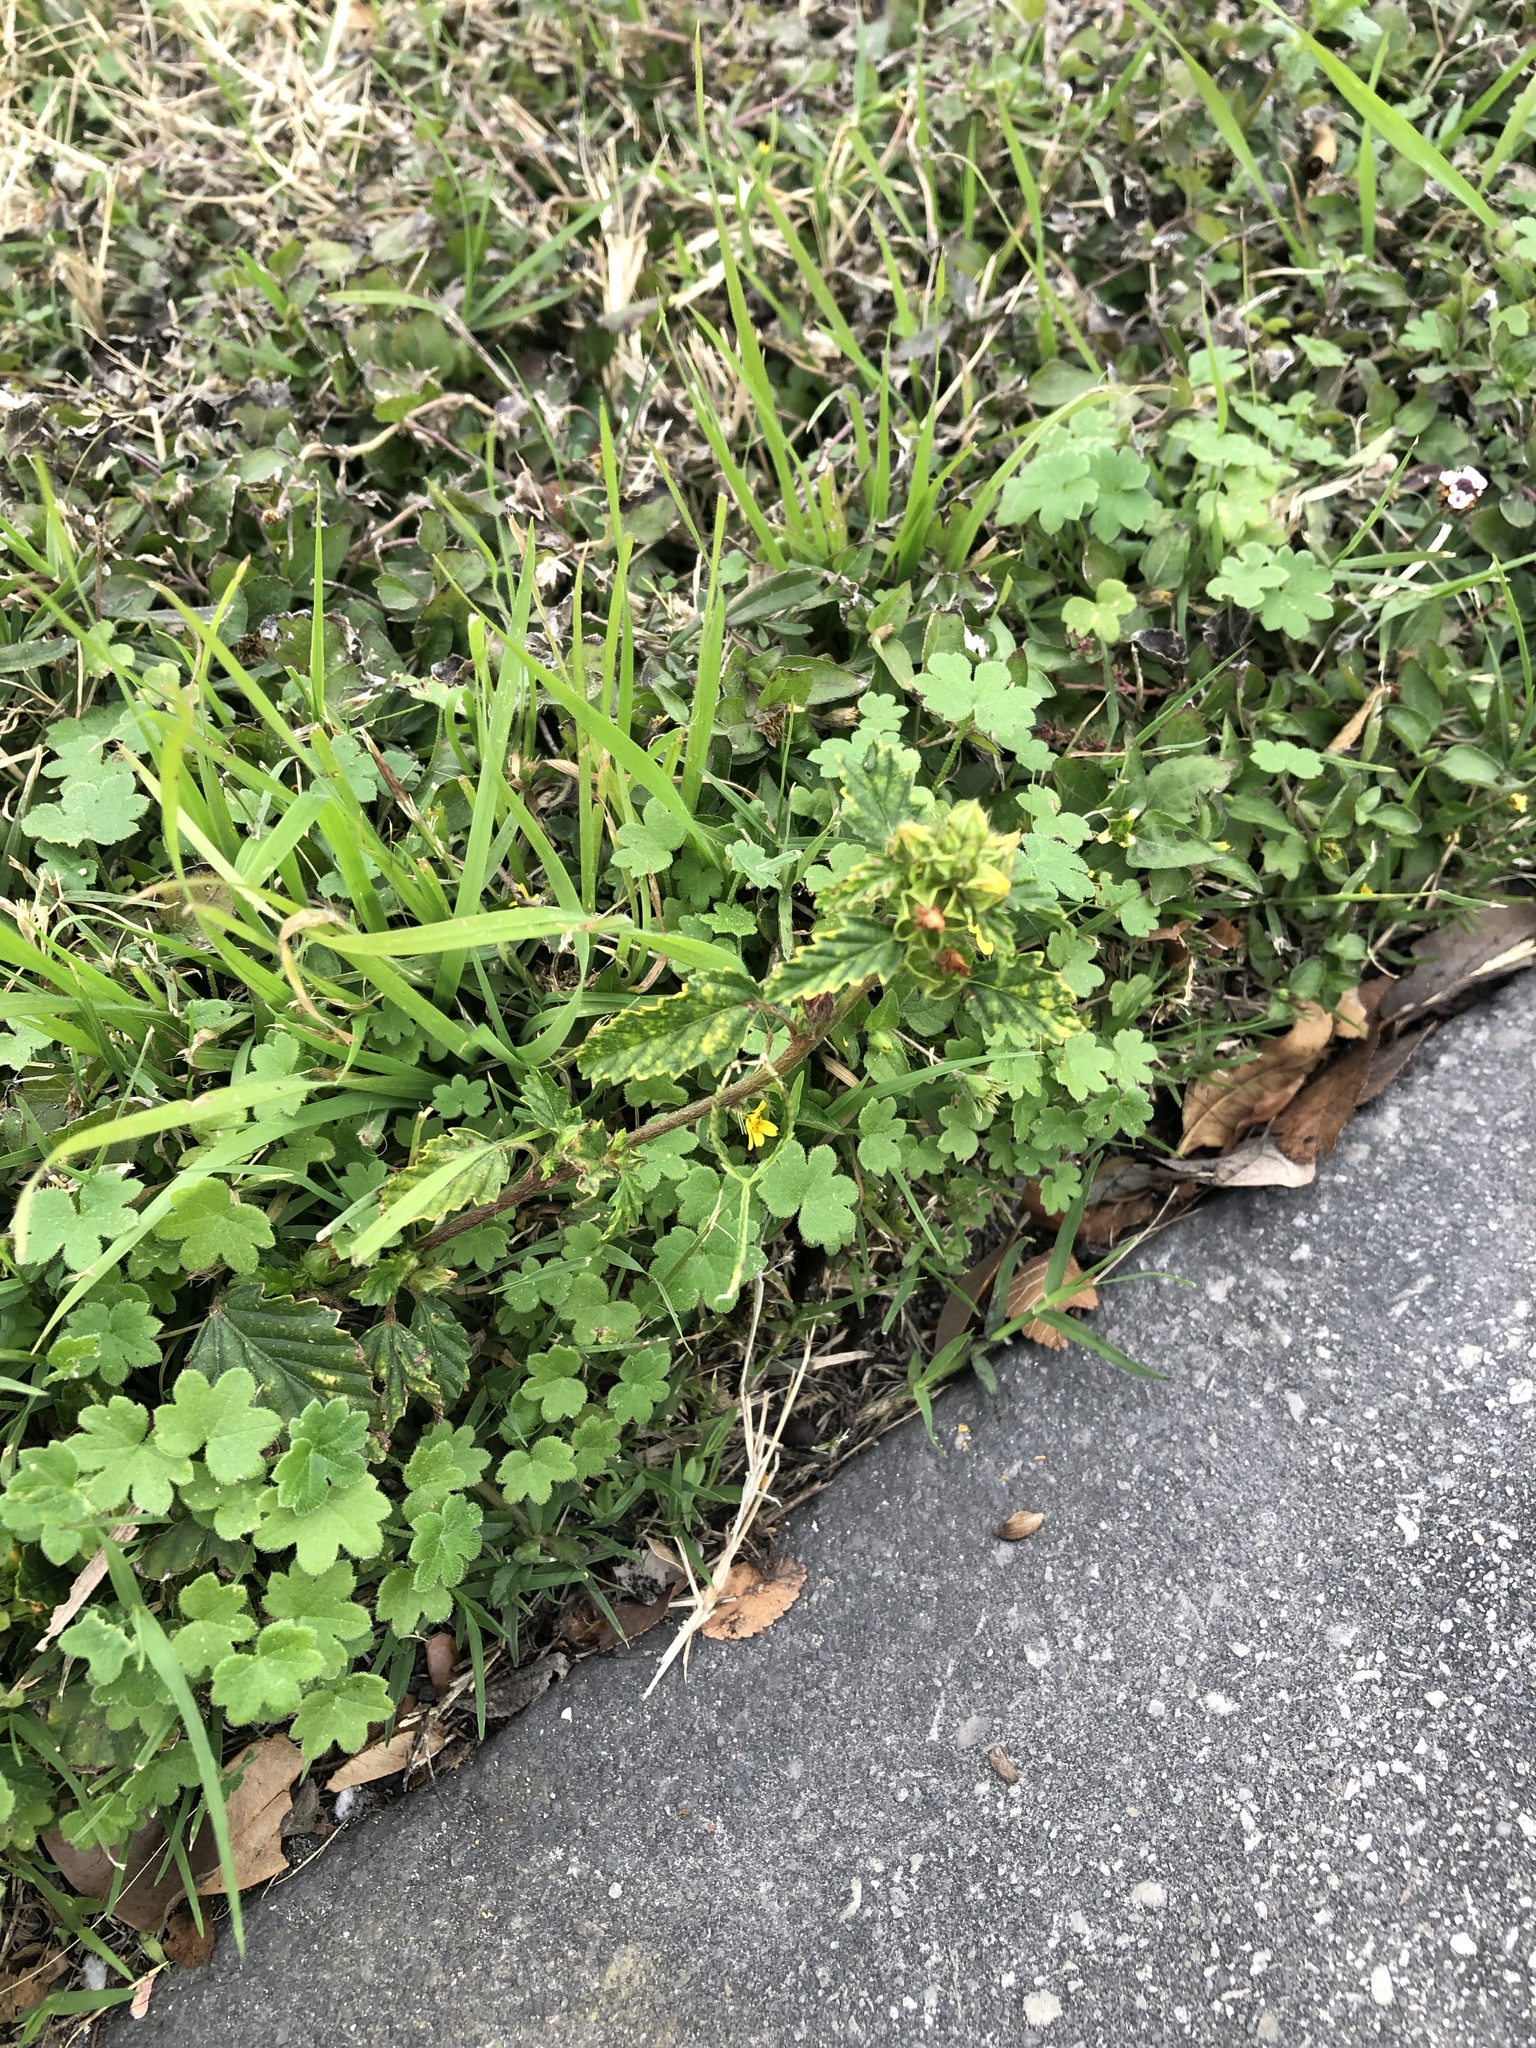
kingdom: Plantae
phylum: Tracheophyta
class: Magnoliopsida
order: Malvales
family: Malvaceae
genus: Malvastrum
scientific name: Malvastrum coromandelianum
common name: Threelobe false mallow
